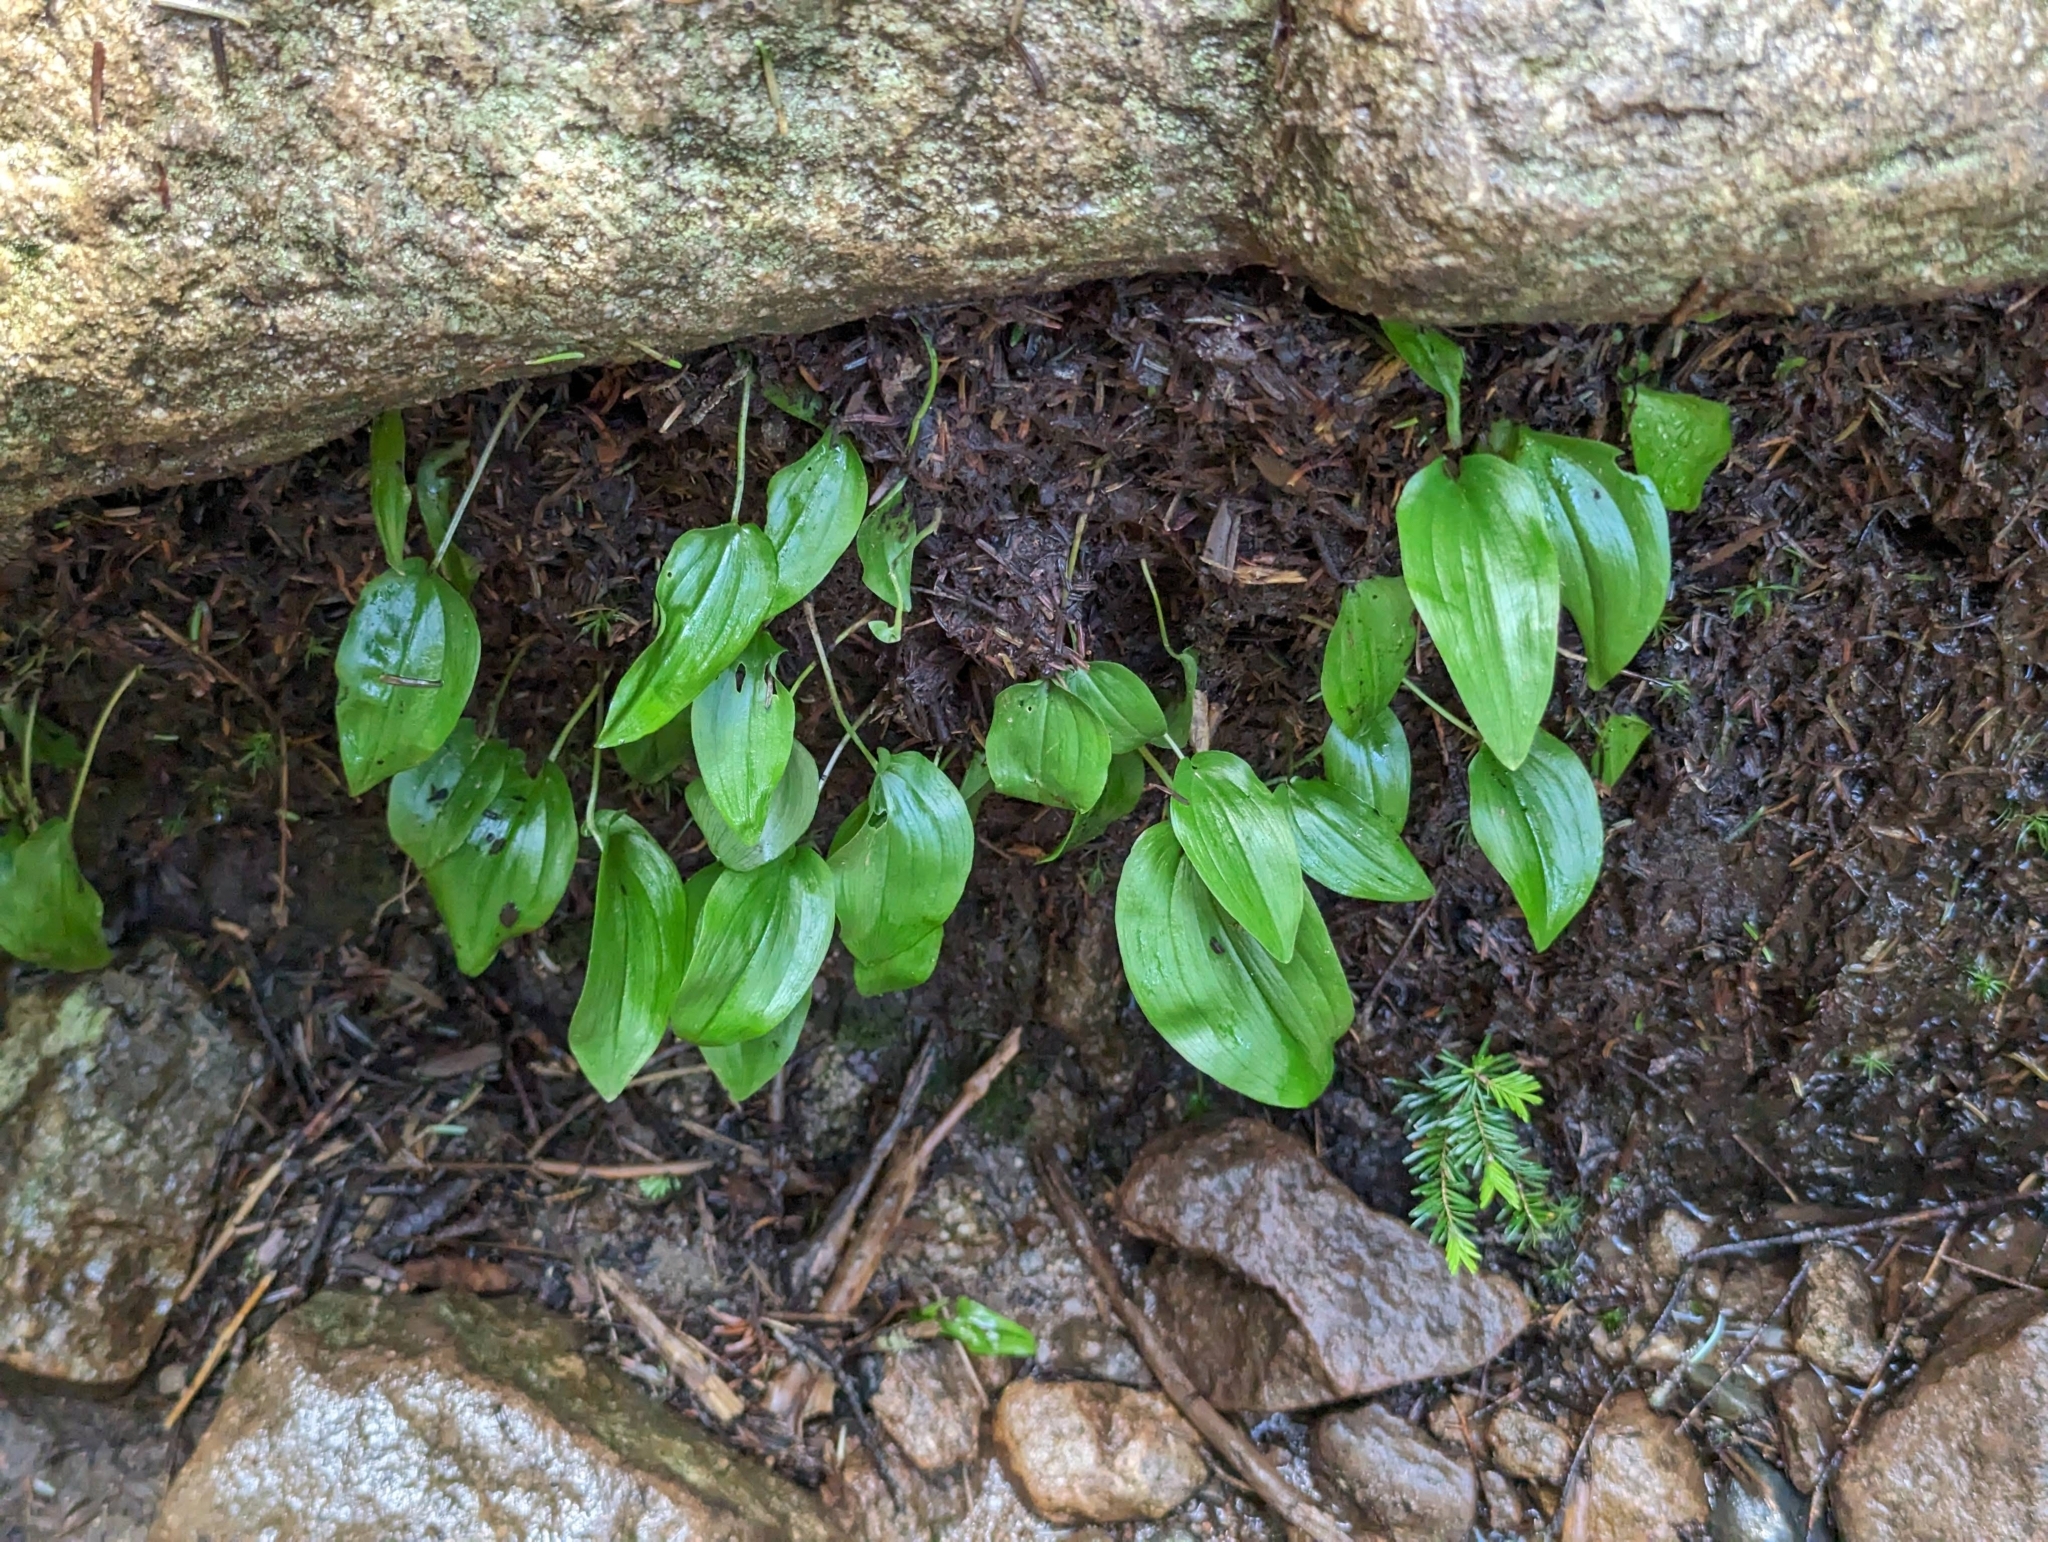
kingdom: Plantae
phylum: Tracheophyta
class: Liliopsida
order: Asparagales
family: Asparagaceae
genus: Maianthemum
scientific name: Maianthemum canadense
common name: False lily-of-the-valley
